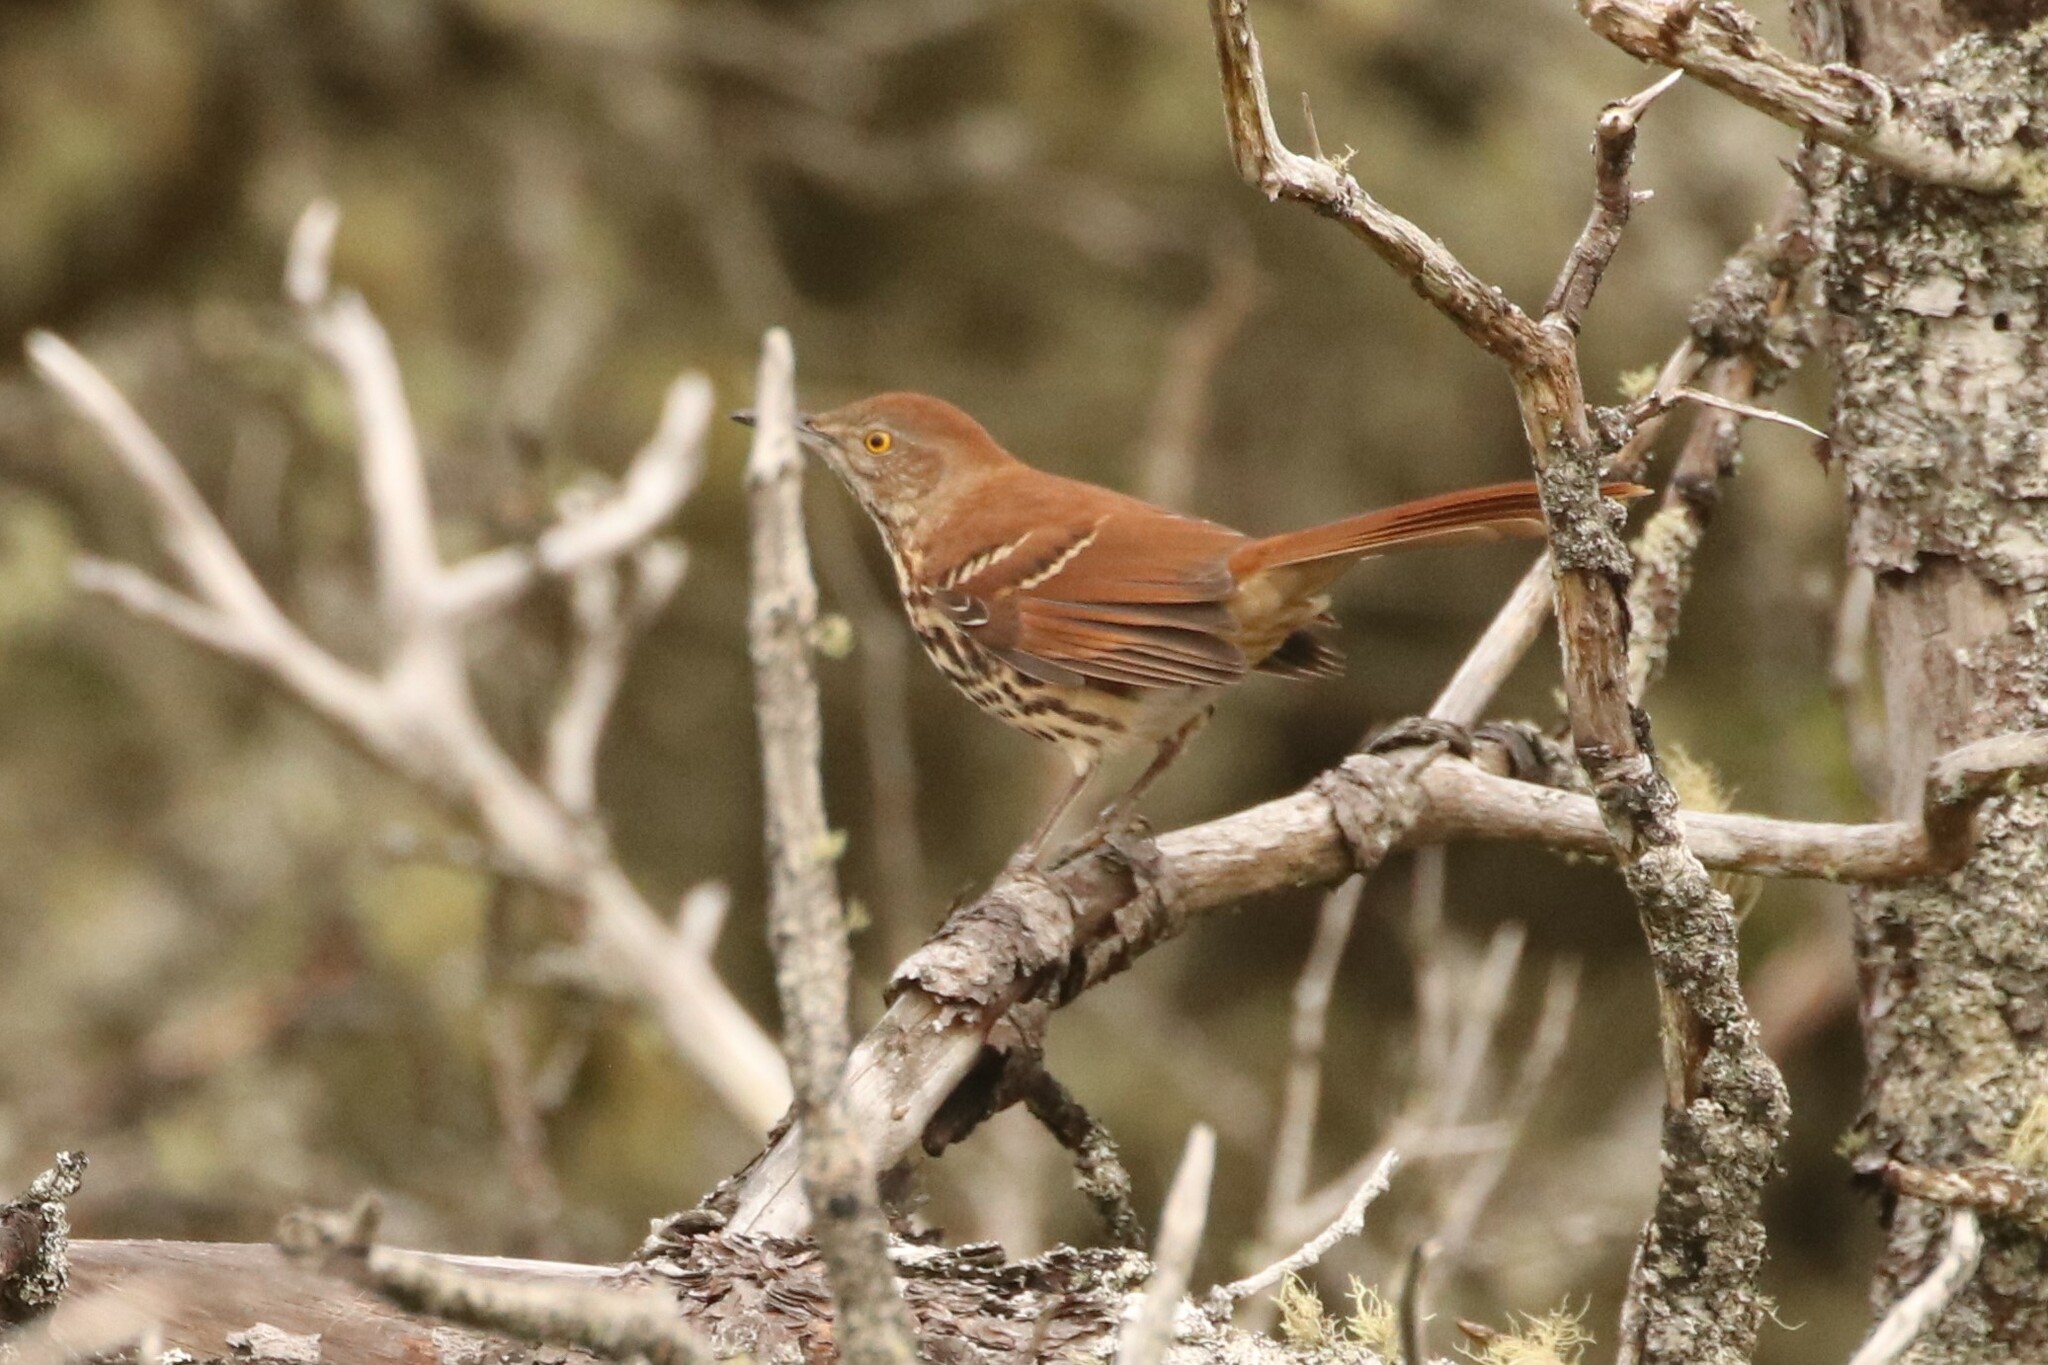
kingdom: Animalia
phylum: Chordata
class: Aves
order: Passeriformes
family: Mimidae
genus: Toxostoma
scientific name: Toxostoma rufum
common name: Brown thrasher
